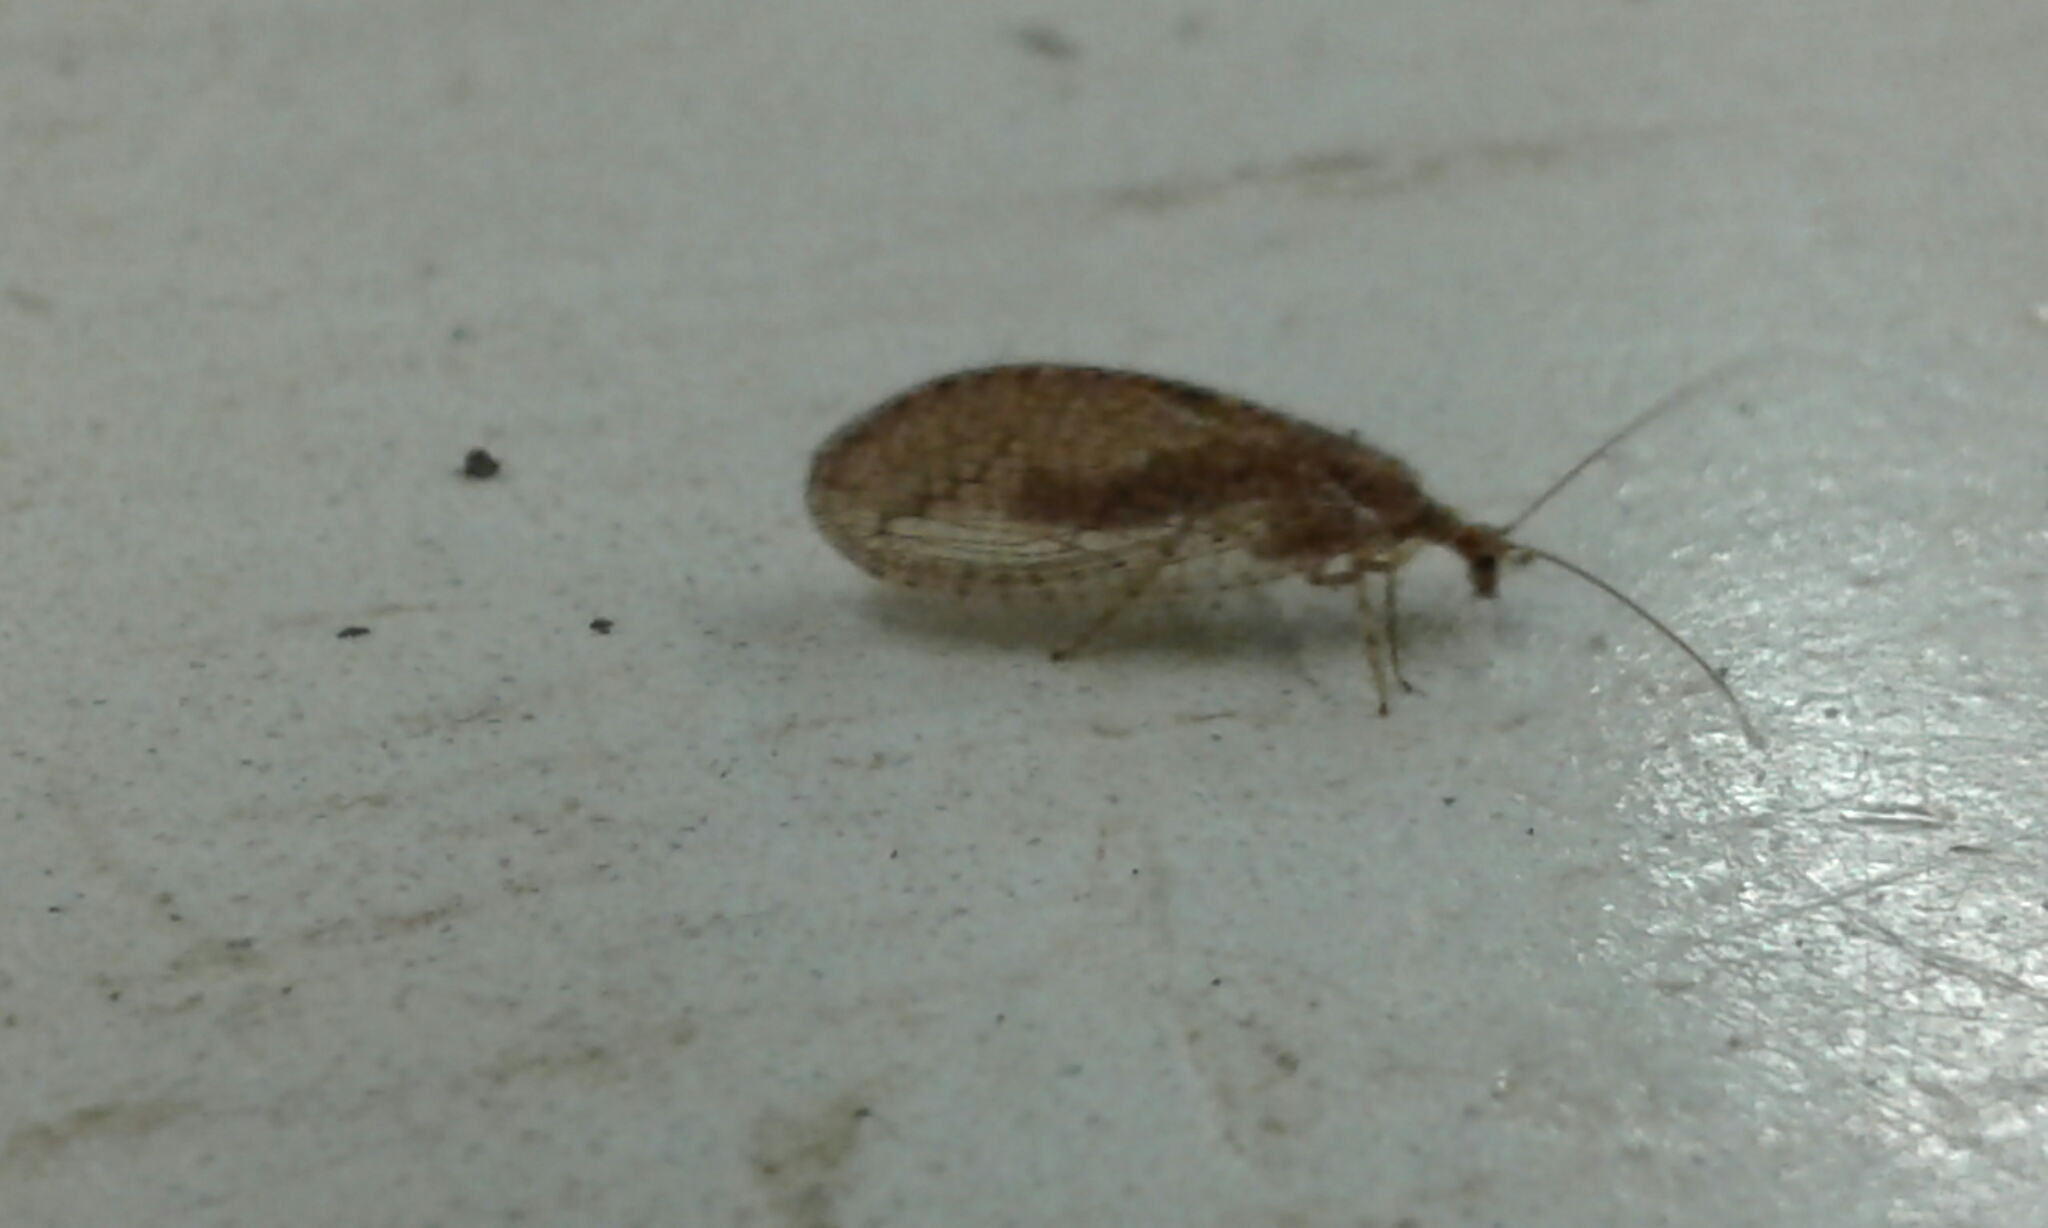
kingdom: Animalia
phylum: Arthropoda
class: Insecta
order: Neuroptera
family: Hemerobiidae
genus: Micromus
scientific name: Micromus posticus
